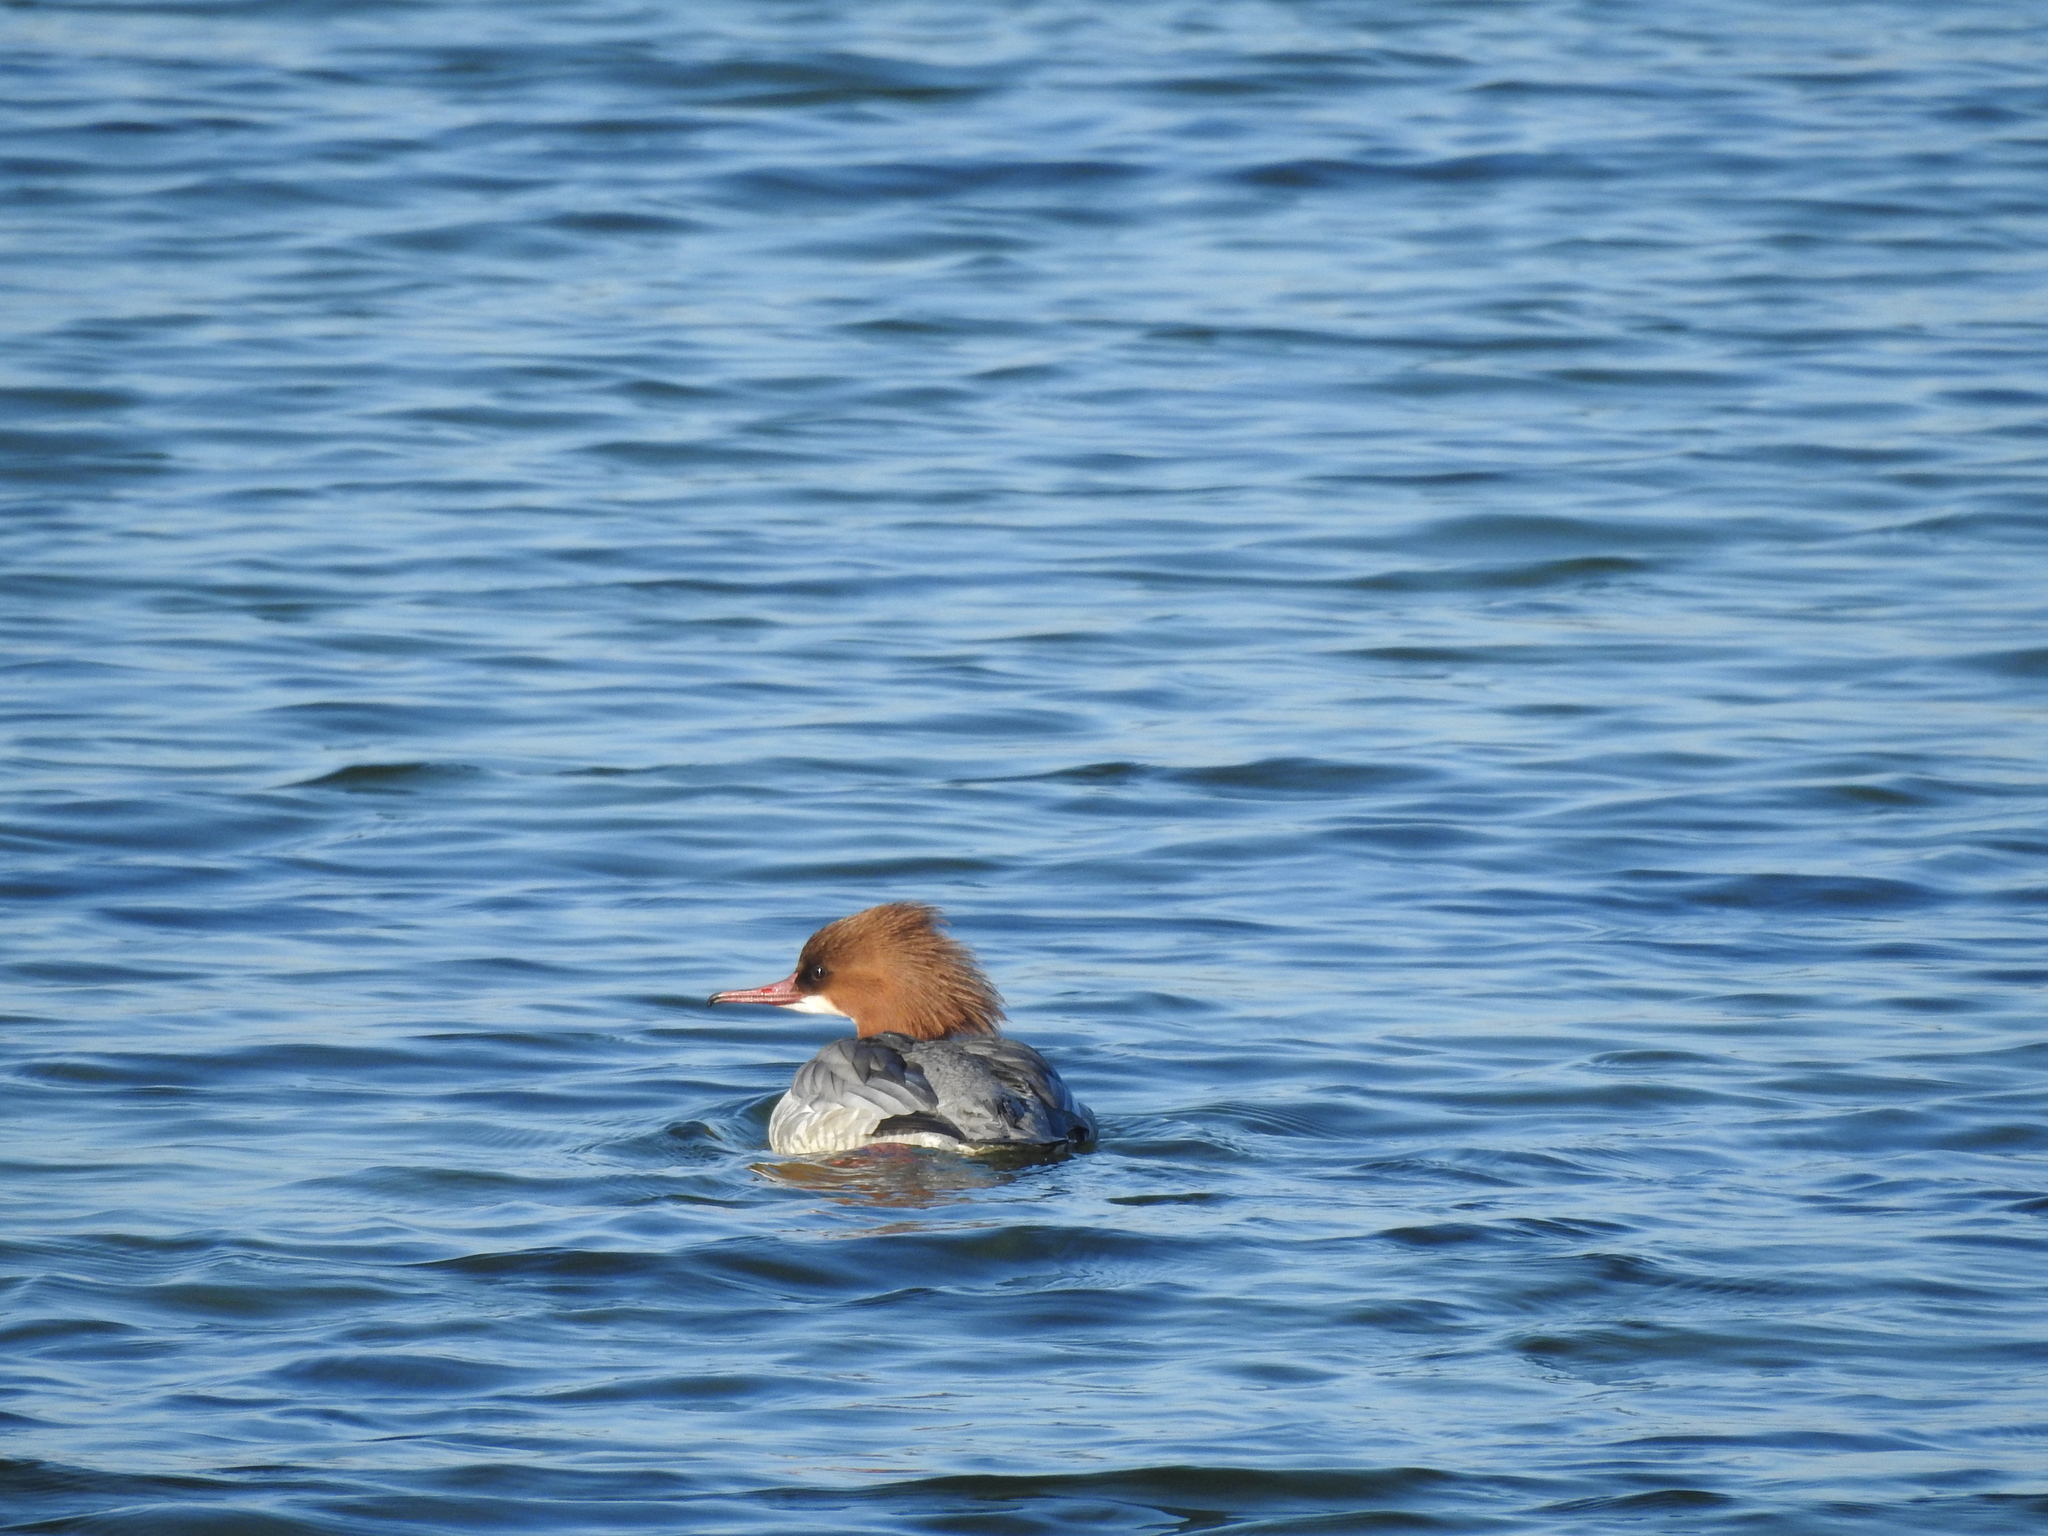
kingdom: Animalia
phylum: Chordata
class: Aves
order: Anseriformes
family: Anatidae
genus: Mergus
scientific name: Mergus merganser
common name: Common merganser
